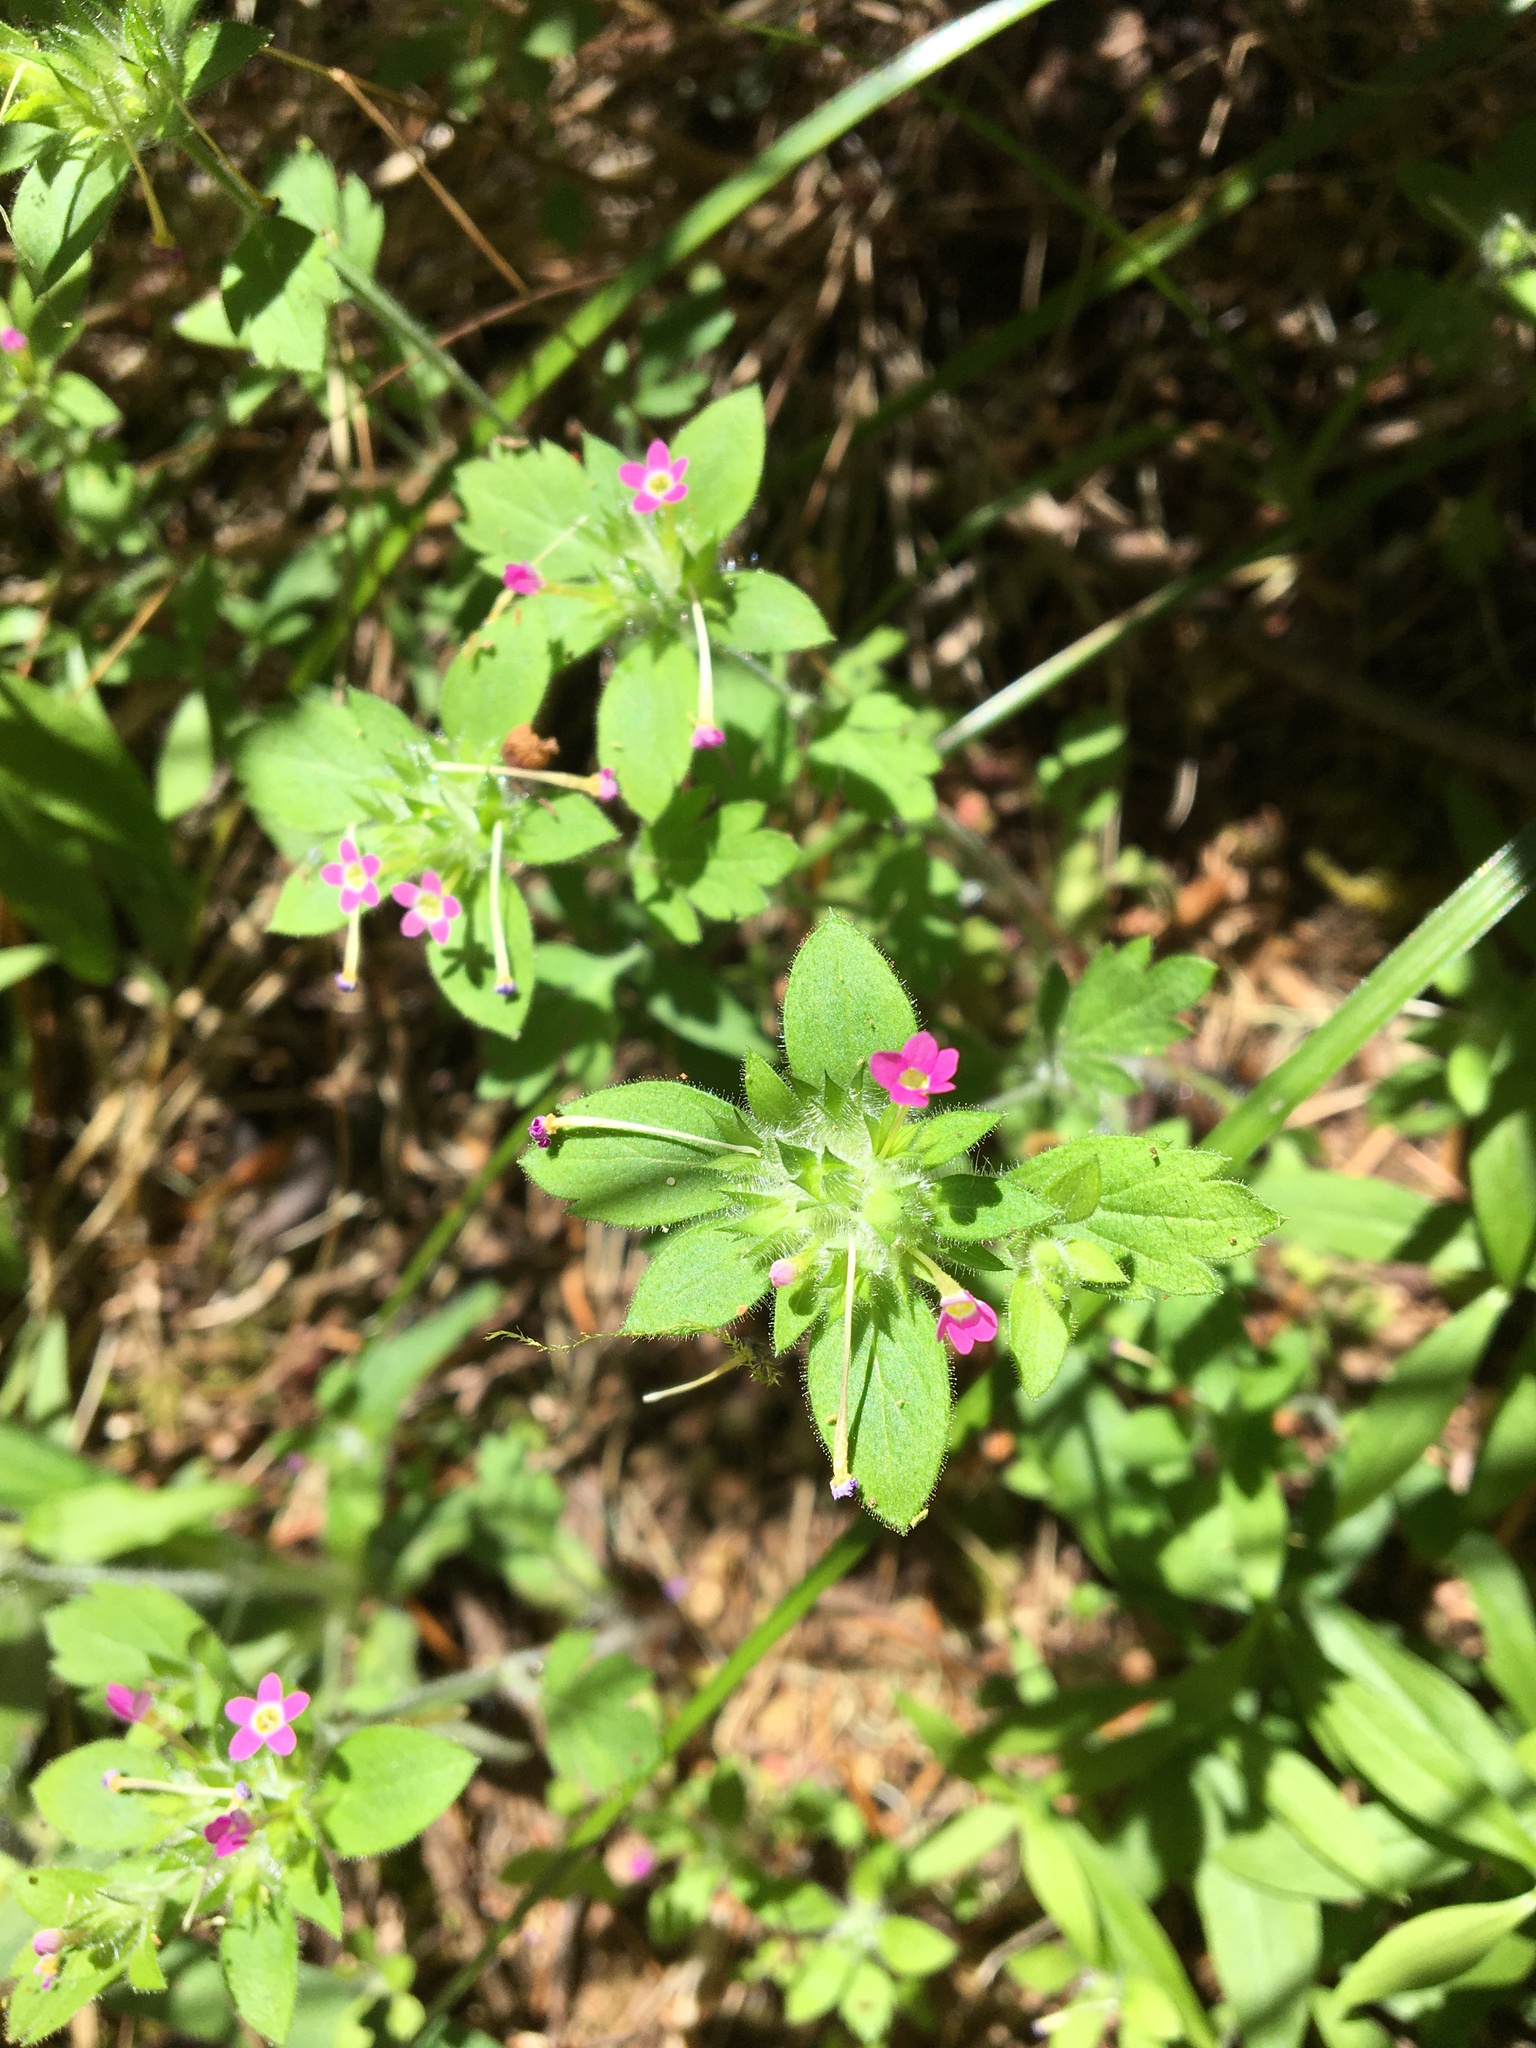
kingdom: Plantae
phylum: Tracheophyta
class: Magnoliopsida
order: Ericales
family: Polemoniaceae
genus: Collomia
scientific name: Collomia heterophylla
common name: Variable-leaved collomia
